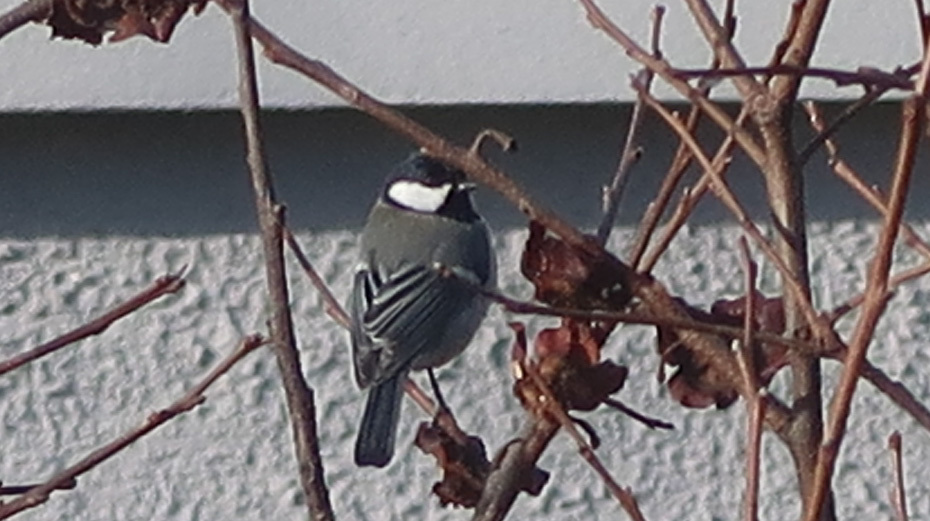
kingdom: Animalia
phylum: Chordata
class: Aves
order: Passeriformes
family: Paridae
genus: Parus
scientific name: Parus major
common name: Great tit
